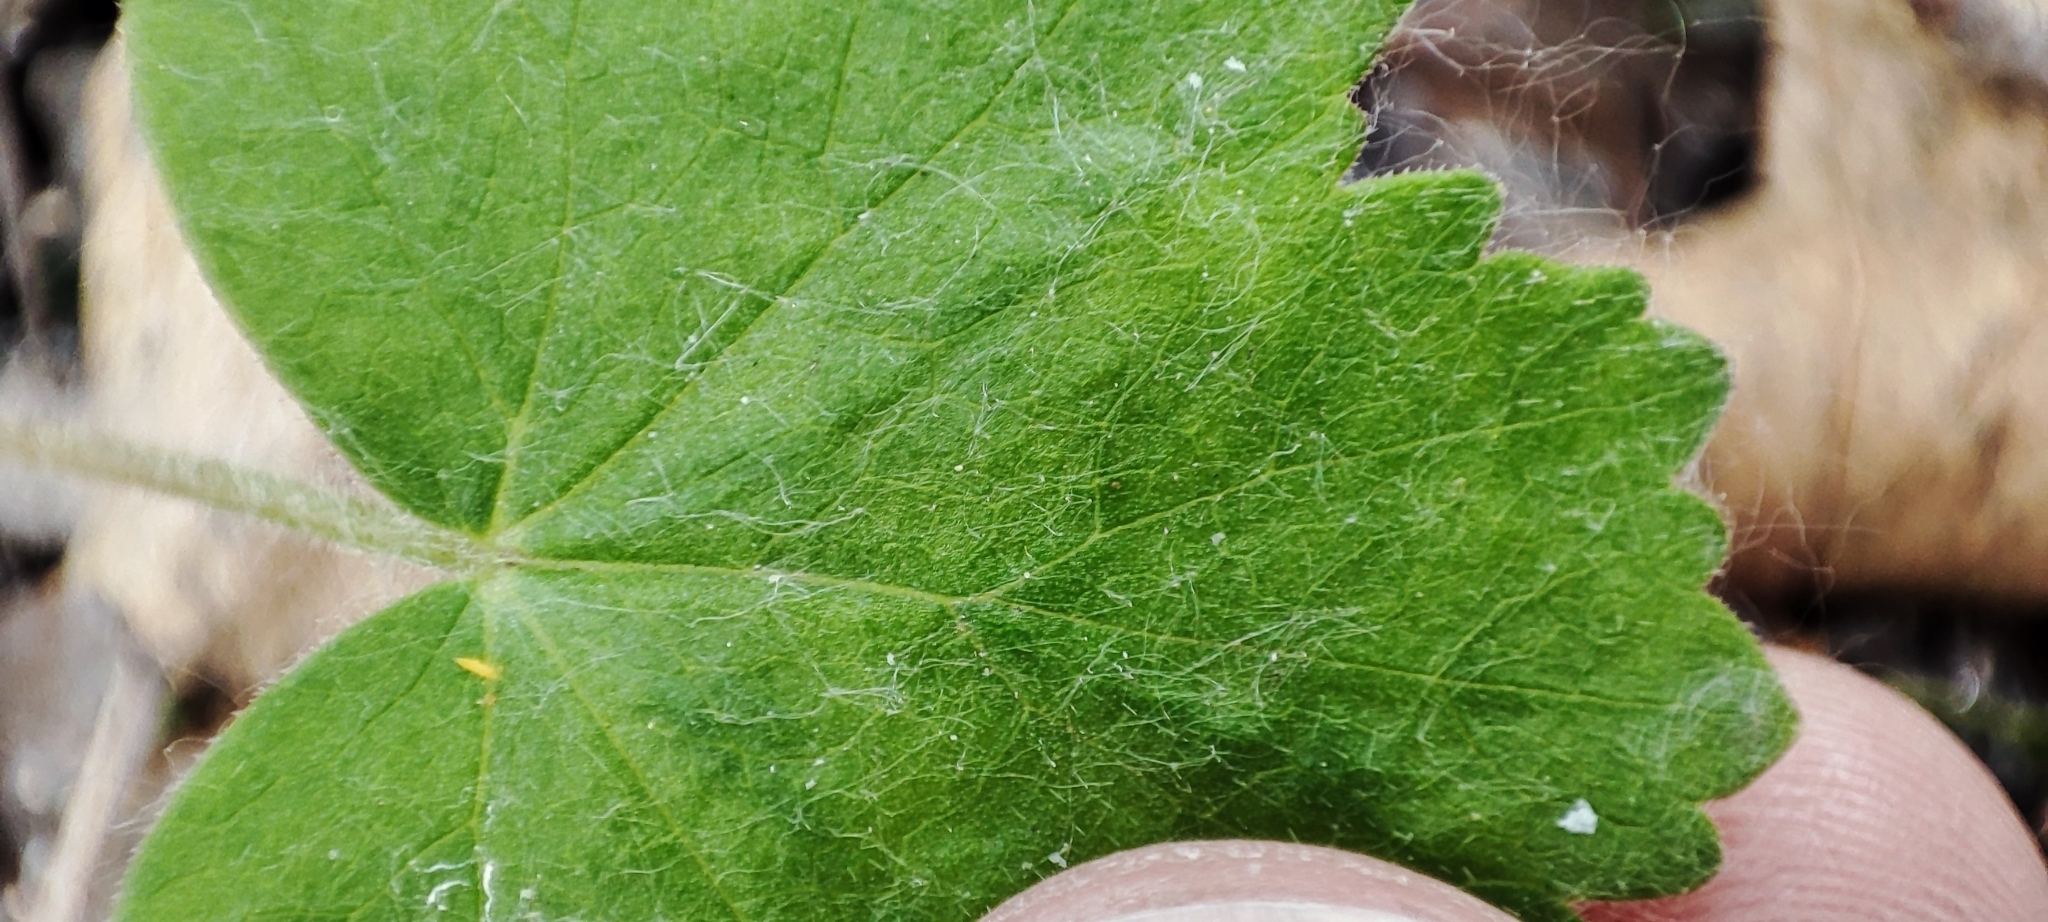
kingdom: Plantae
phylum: Tracheophyta
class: Magnoliopsida
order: Apiales
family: Apiaceae
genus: Heracleum
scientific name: Heracleum sphondylium
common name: Hogweed
